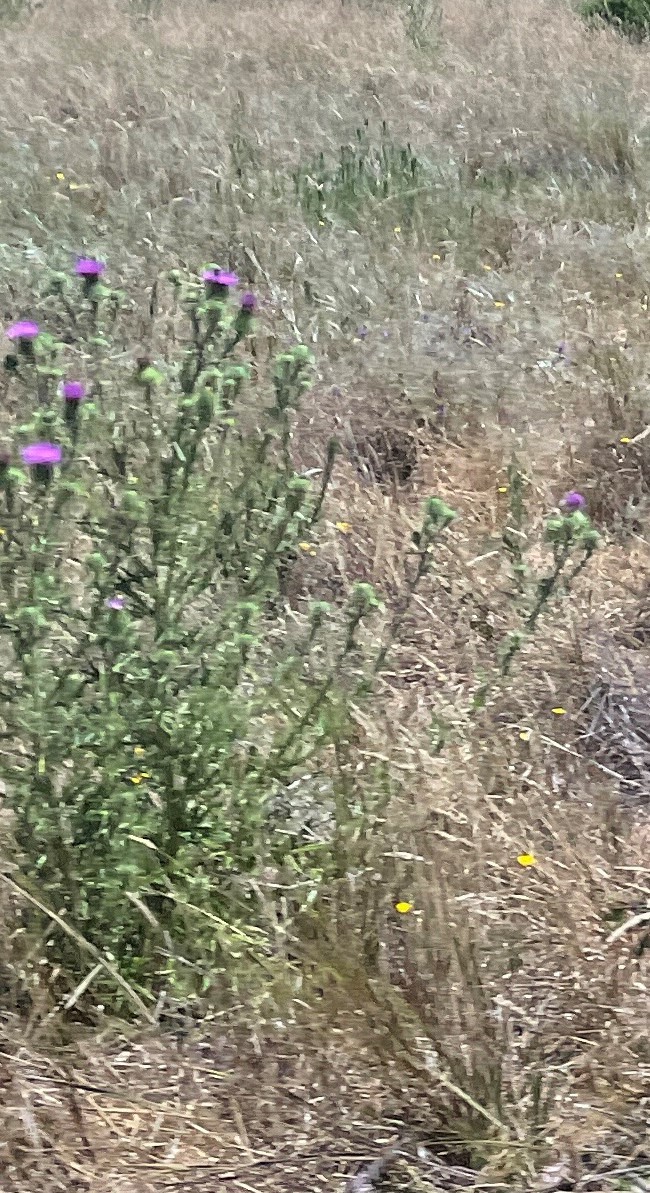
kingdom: Plantae
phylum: Tracheophyta
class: Magnoliopsida
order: Asterales
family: Asteraceae
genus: Cirsium
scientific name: Cirsium vulgare
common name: Bull thistle
